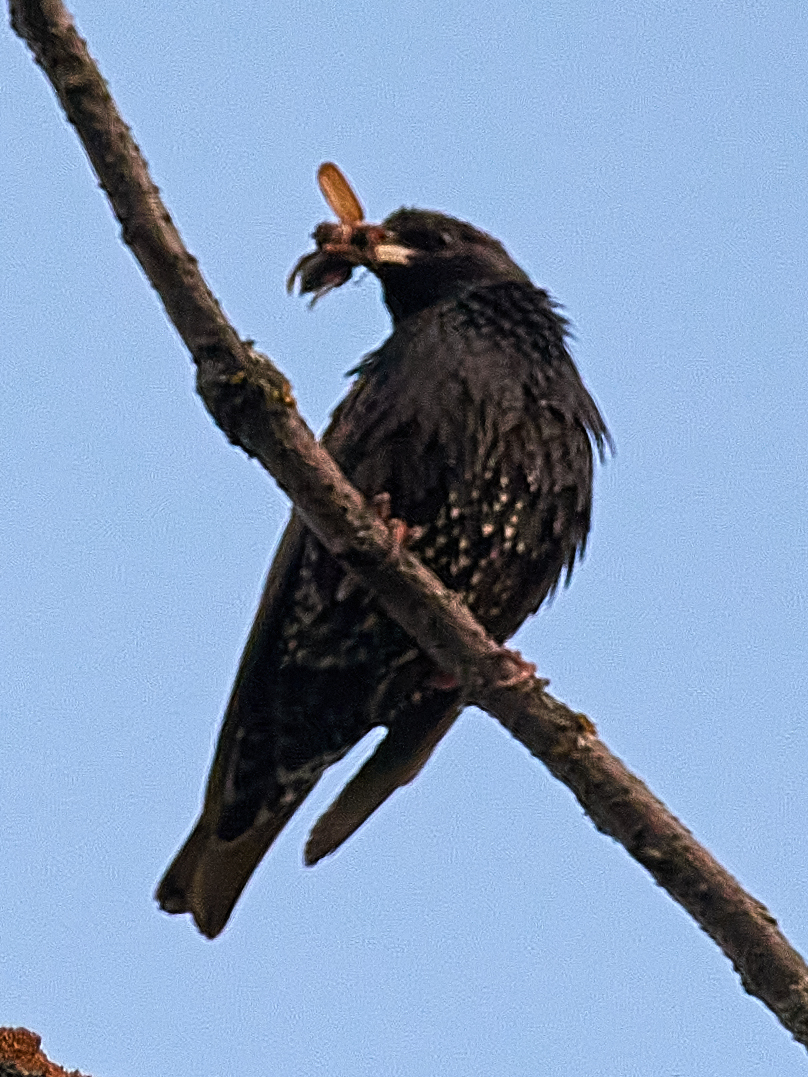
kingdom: Animalia
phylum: Chordata
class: Aves
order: Passeriformes
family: Sturnidae
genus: Sturnus
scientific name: Sturnus vulgaris
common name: Common starling
